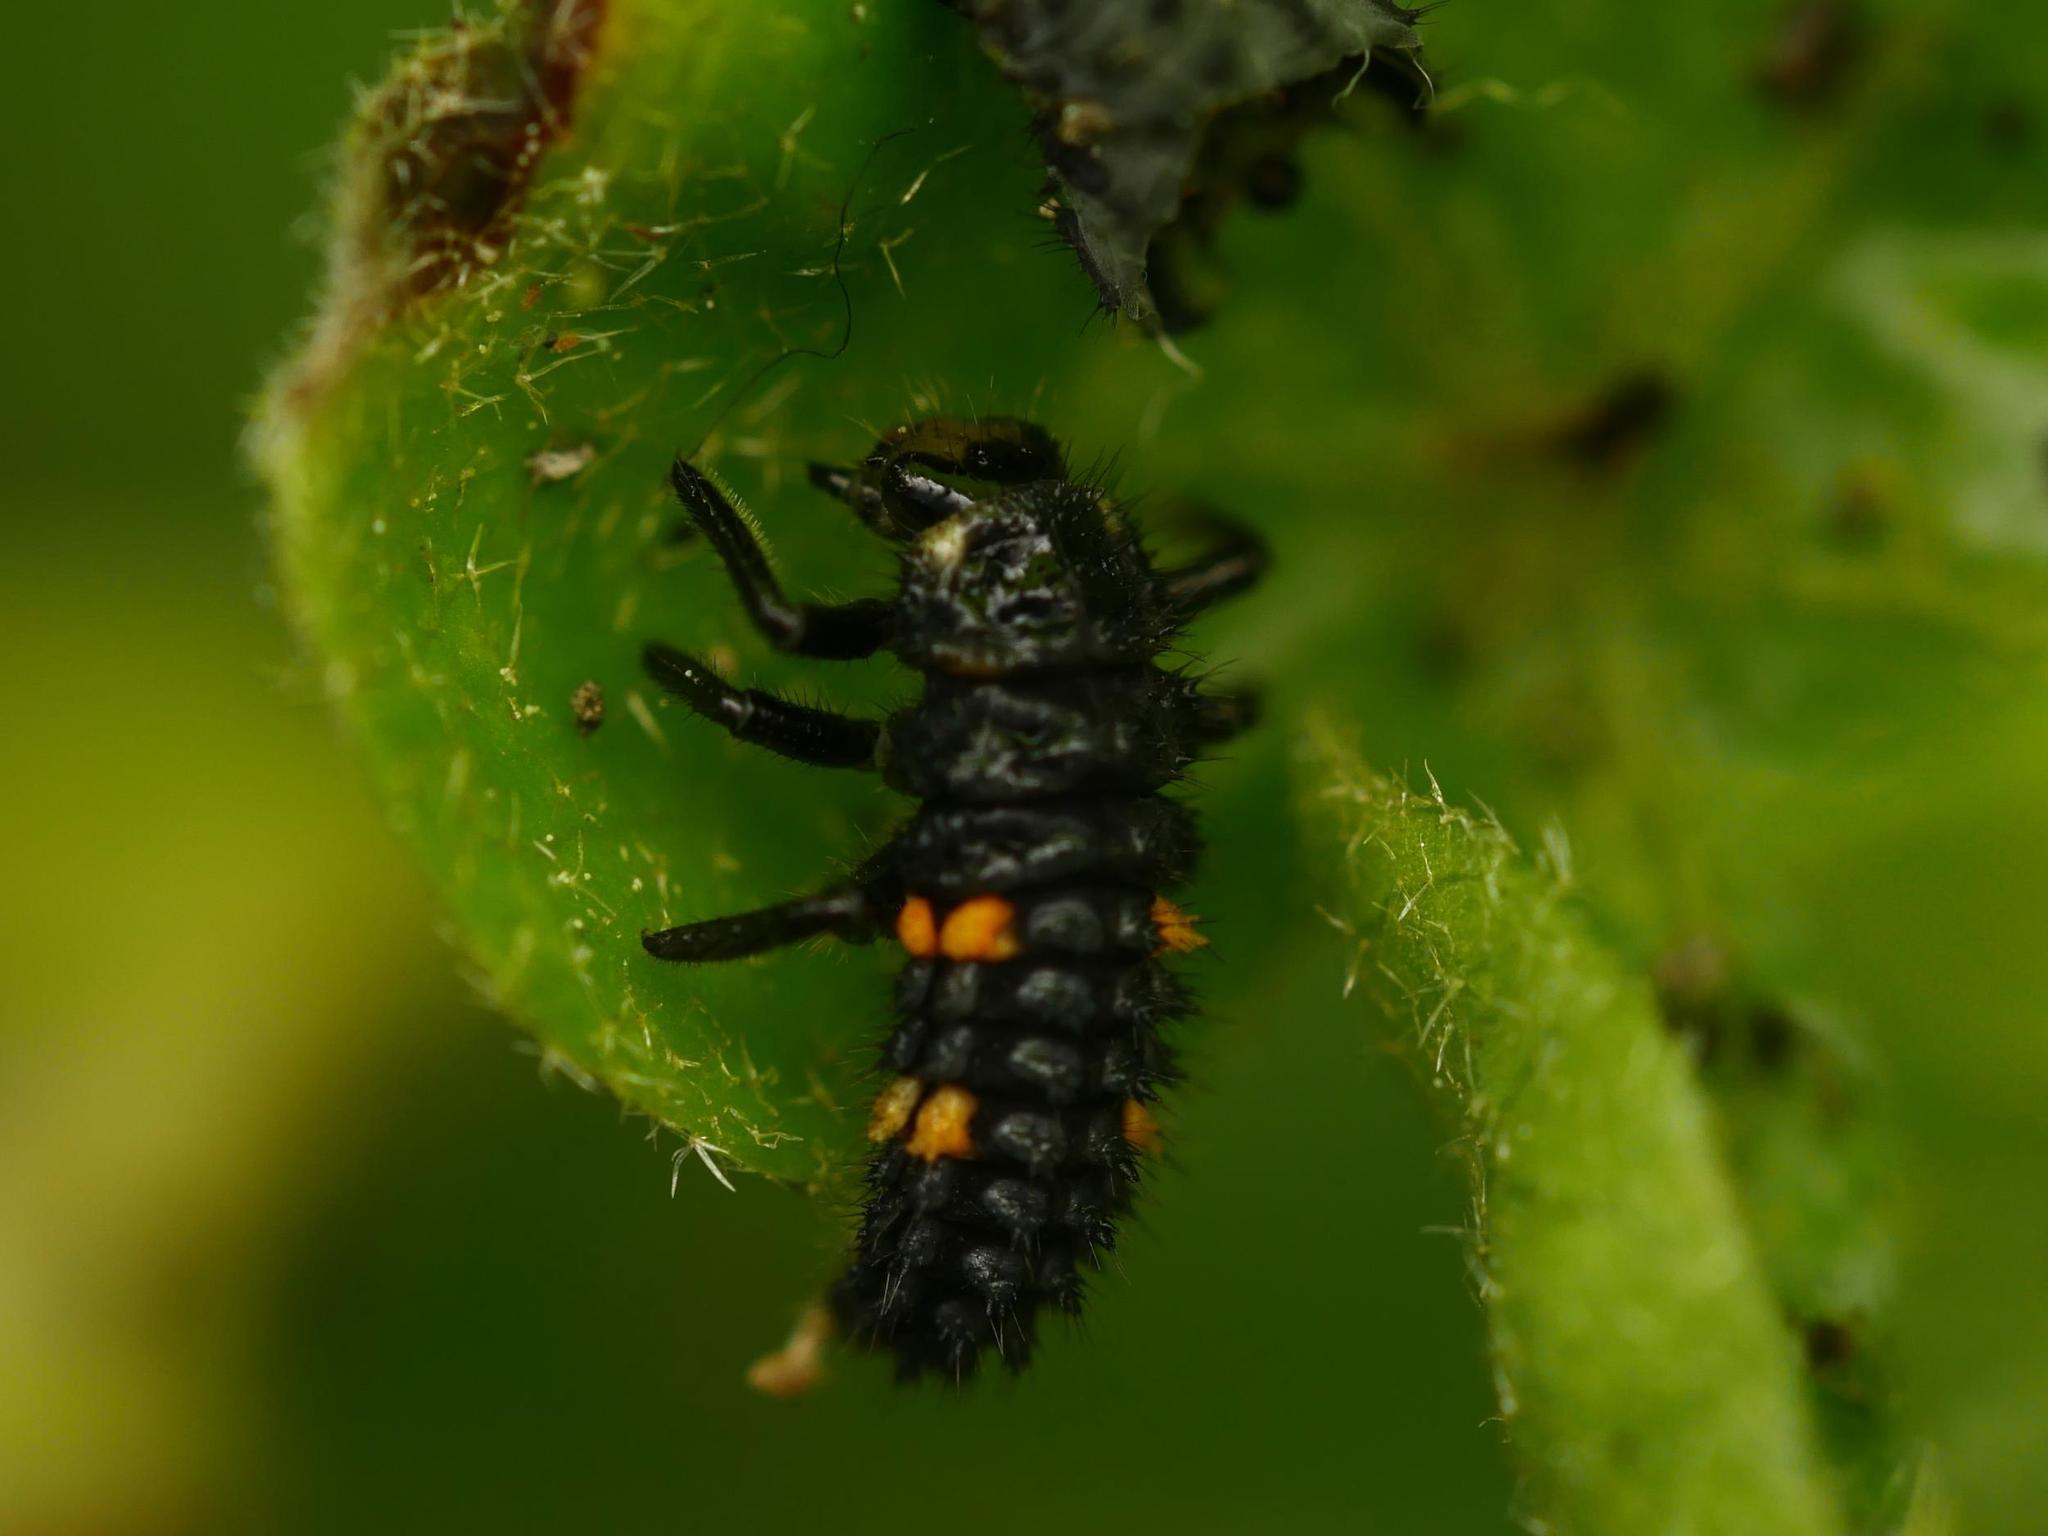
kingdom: Animalia
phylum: Arthropoda
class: Insecta
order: Coleoptera
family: Coccinellidae
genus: Coccinella
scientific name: Coccinella septempunctata
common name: Sevenspotted lady beetle
